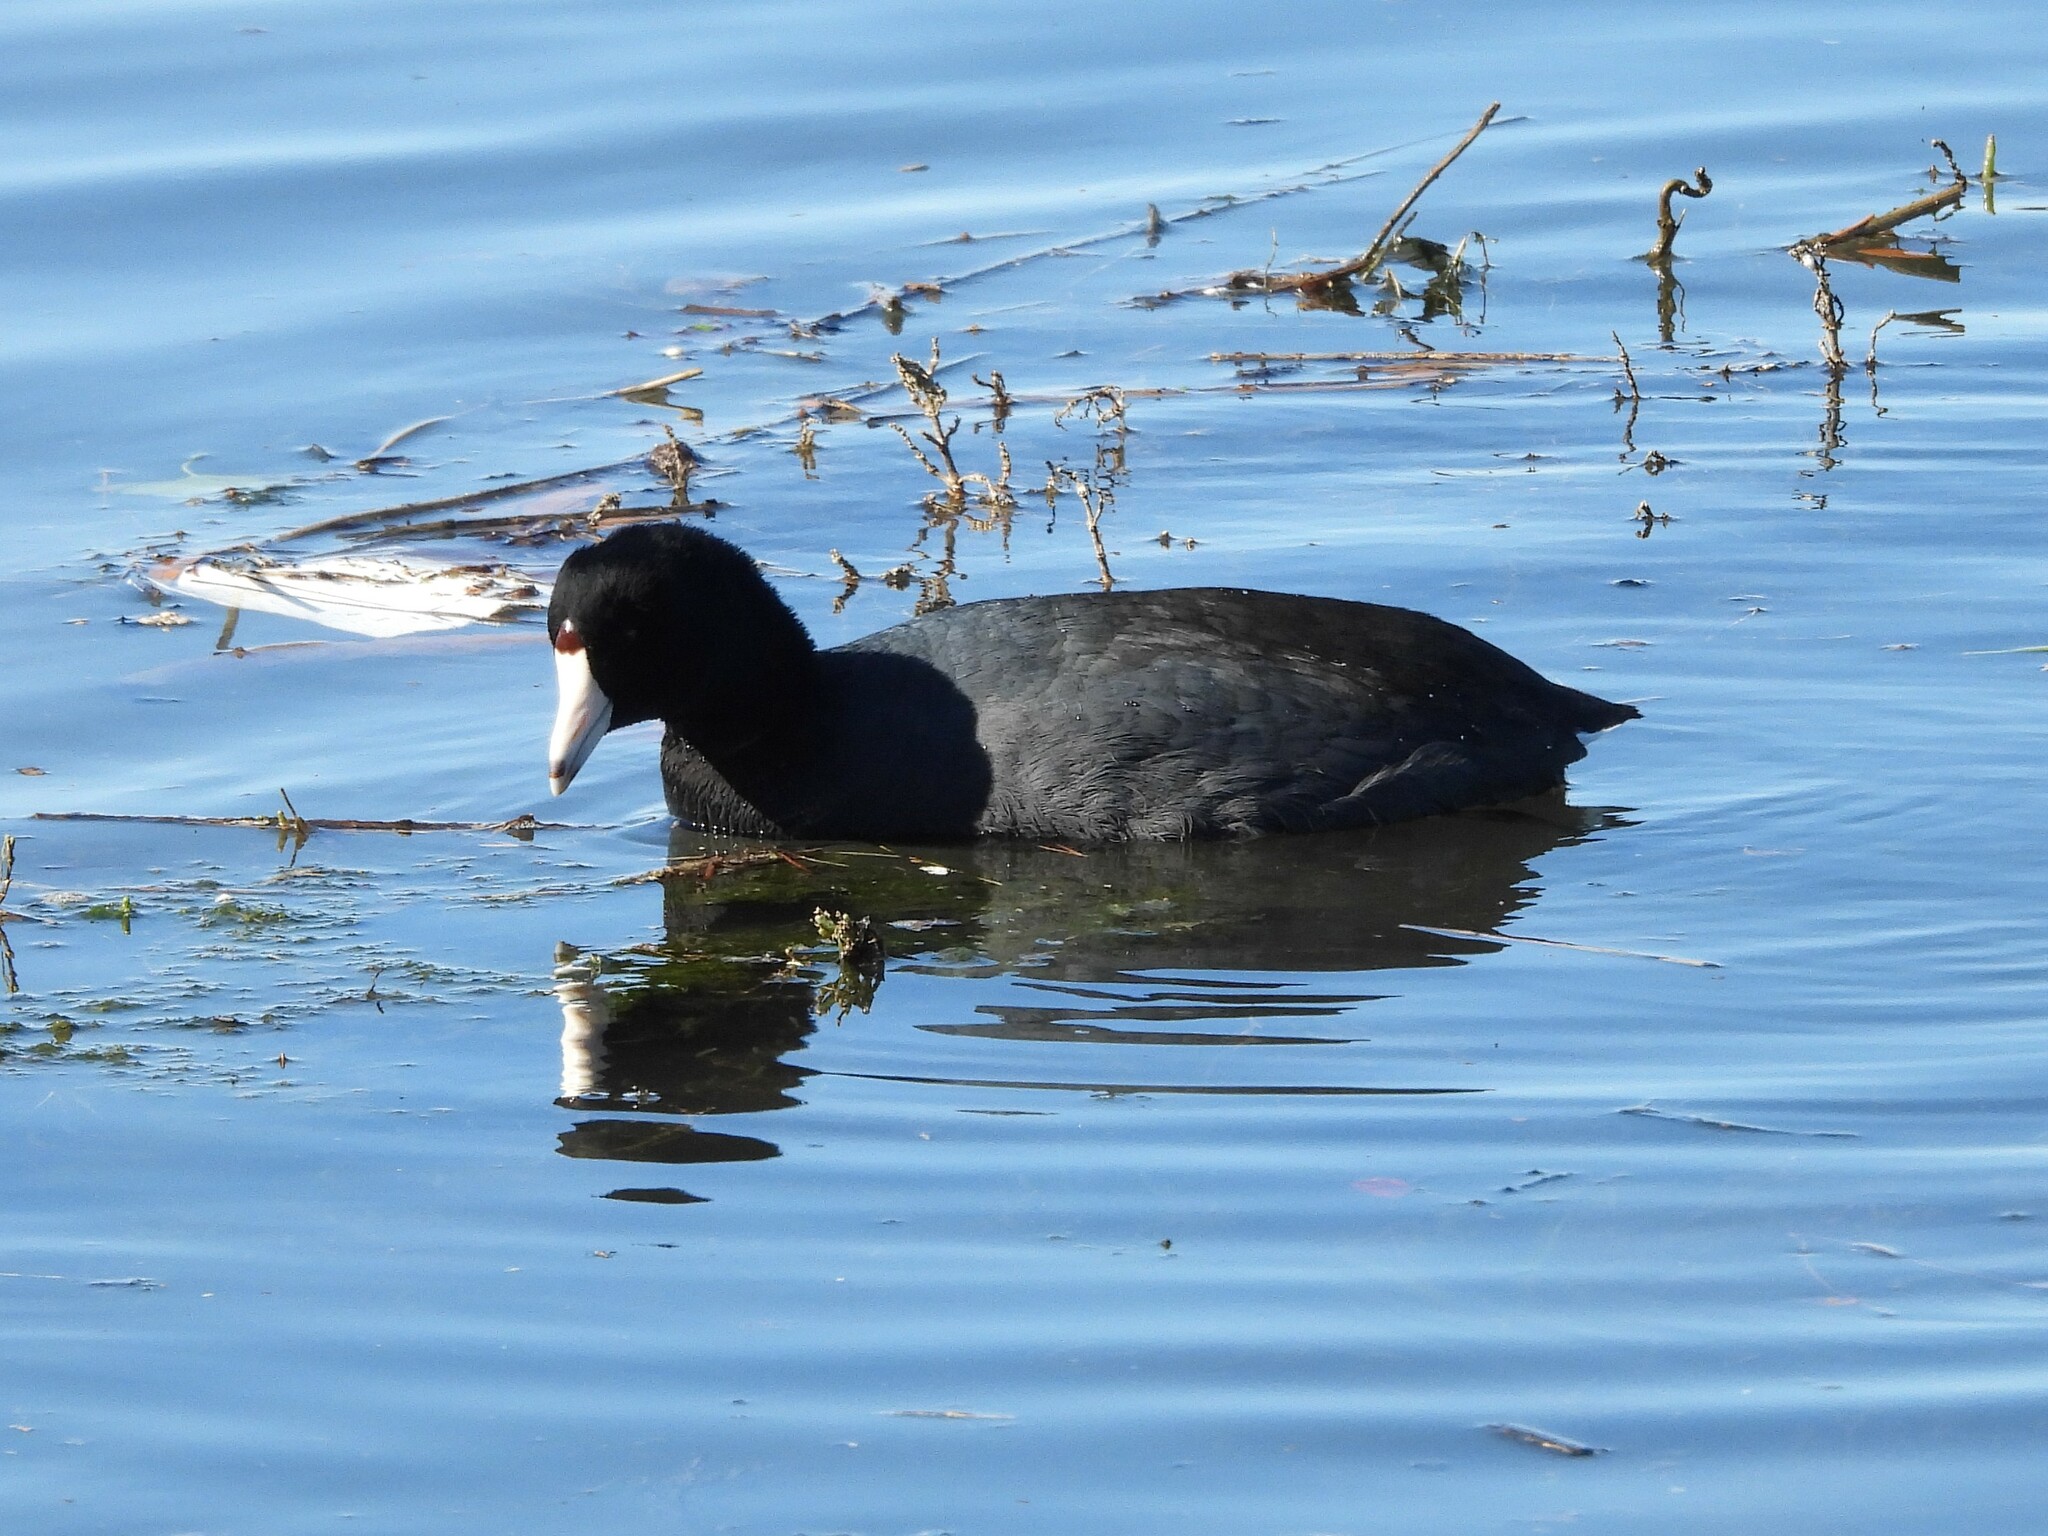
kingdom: Animalia
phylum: Chordata
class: Aves
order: Gruiformes
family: Rallidae
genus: Fulica
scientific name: Fulica americana
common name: American coot
